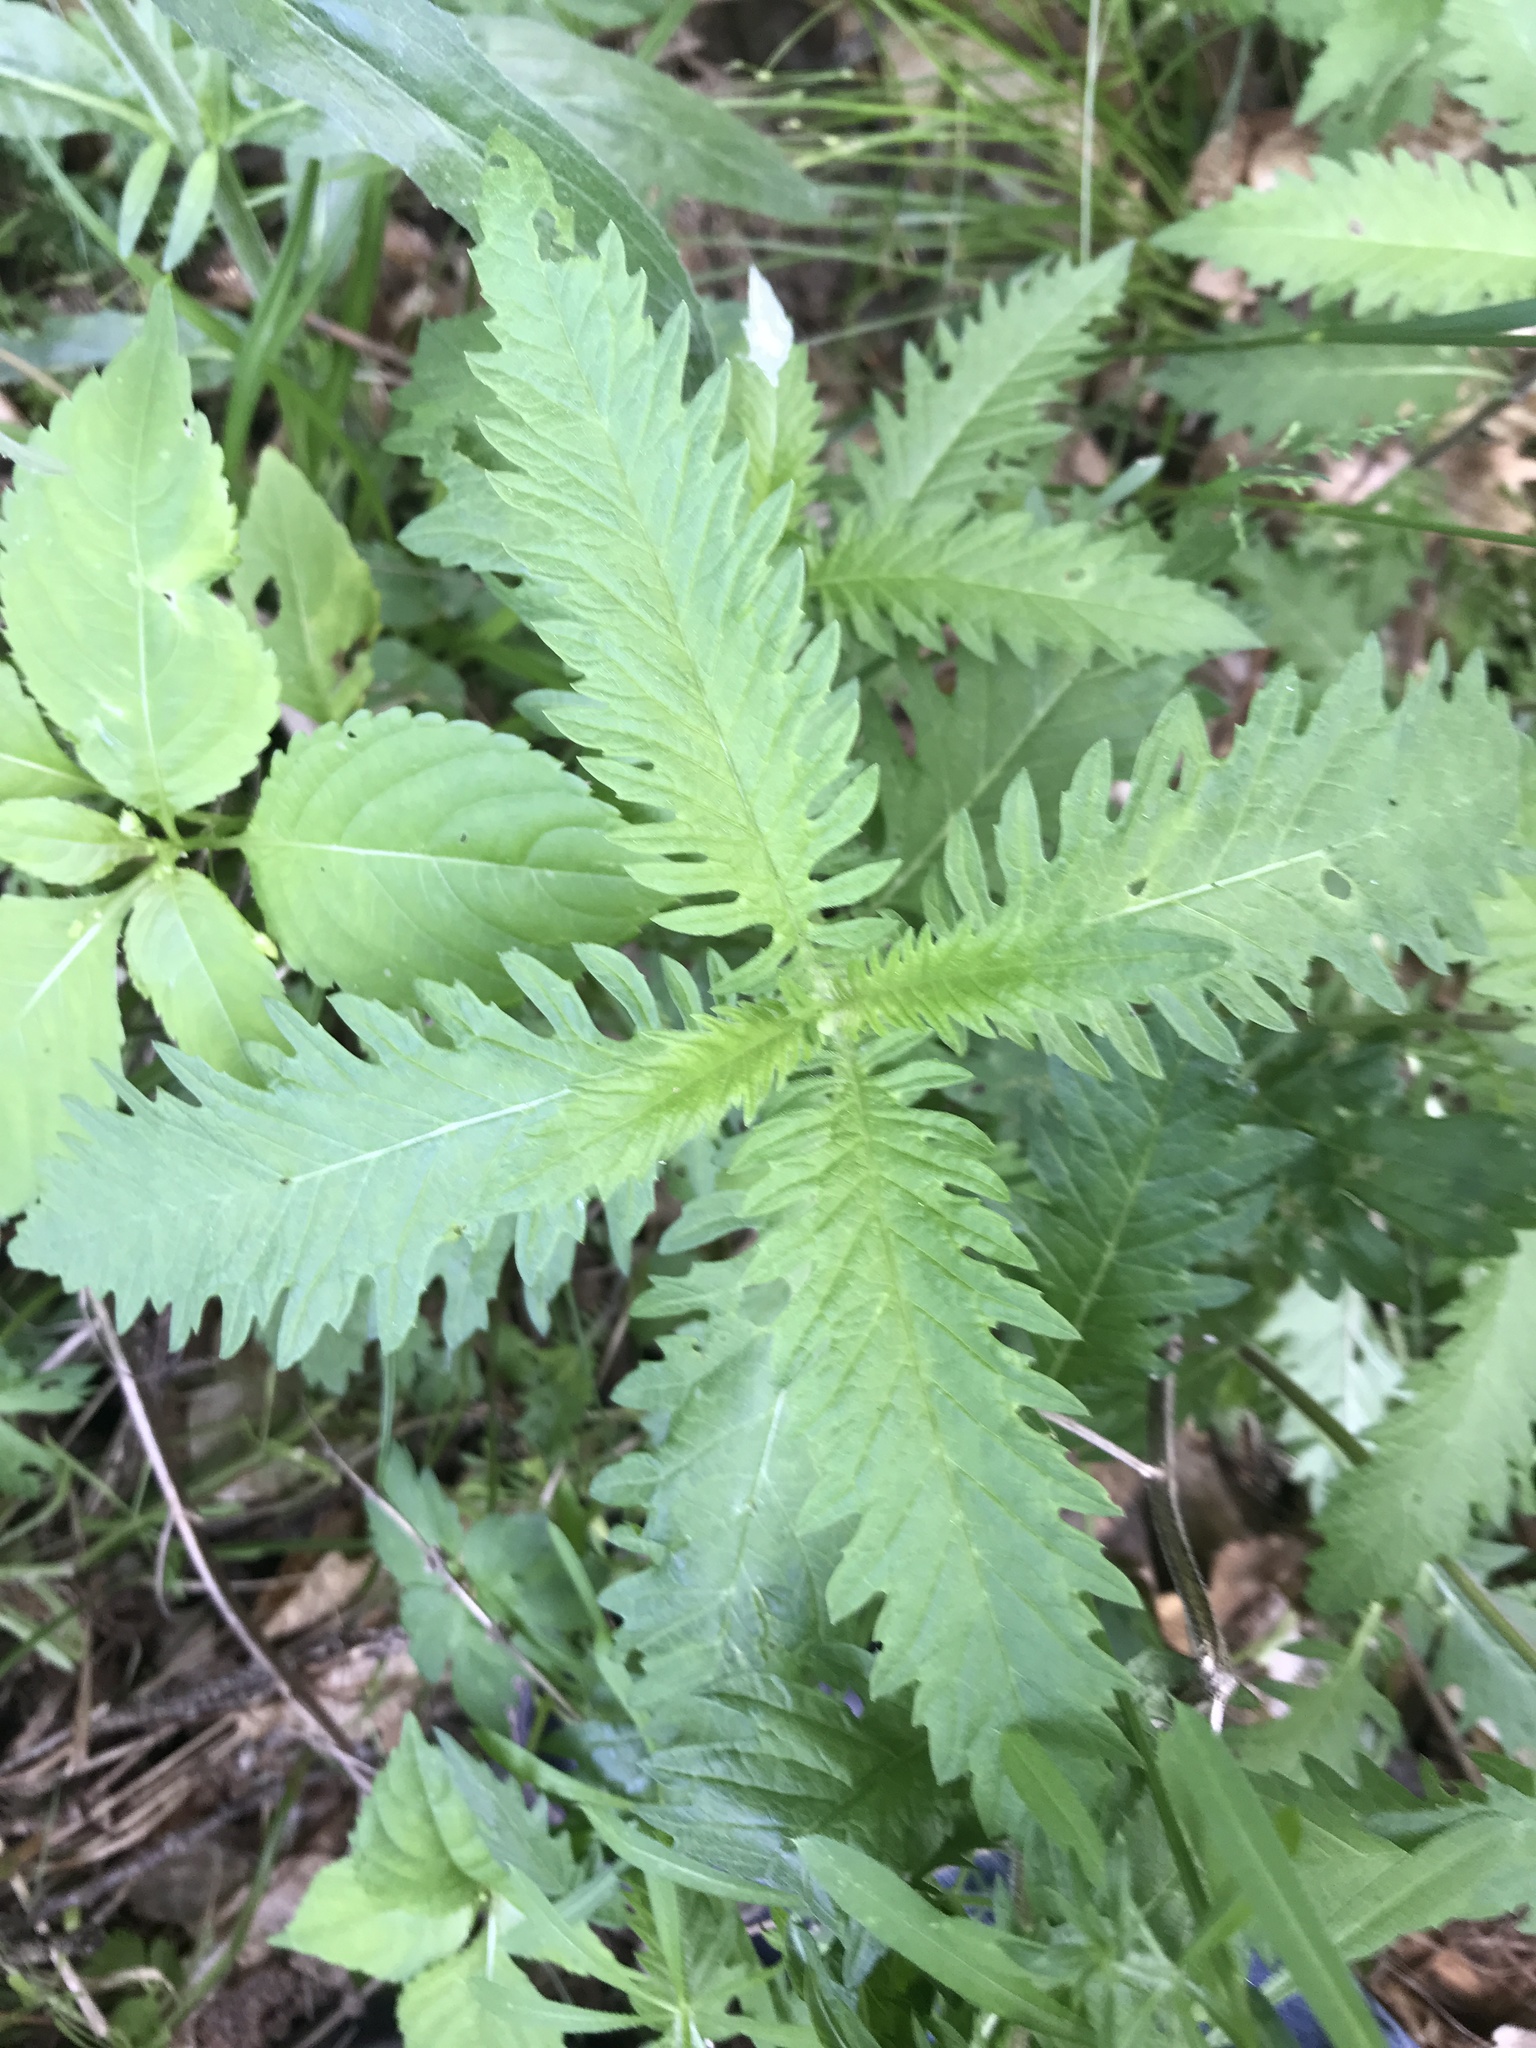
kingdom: Plantae
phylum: Tracheophyta
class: Magnoliopsida
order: Lamiales
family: Lamiaceae
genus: Lycopus
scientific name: Lycopus europaeus
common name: European bugleweed
